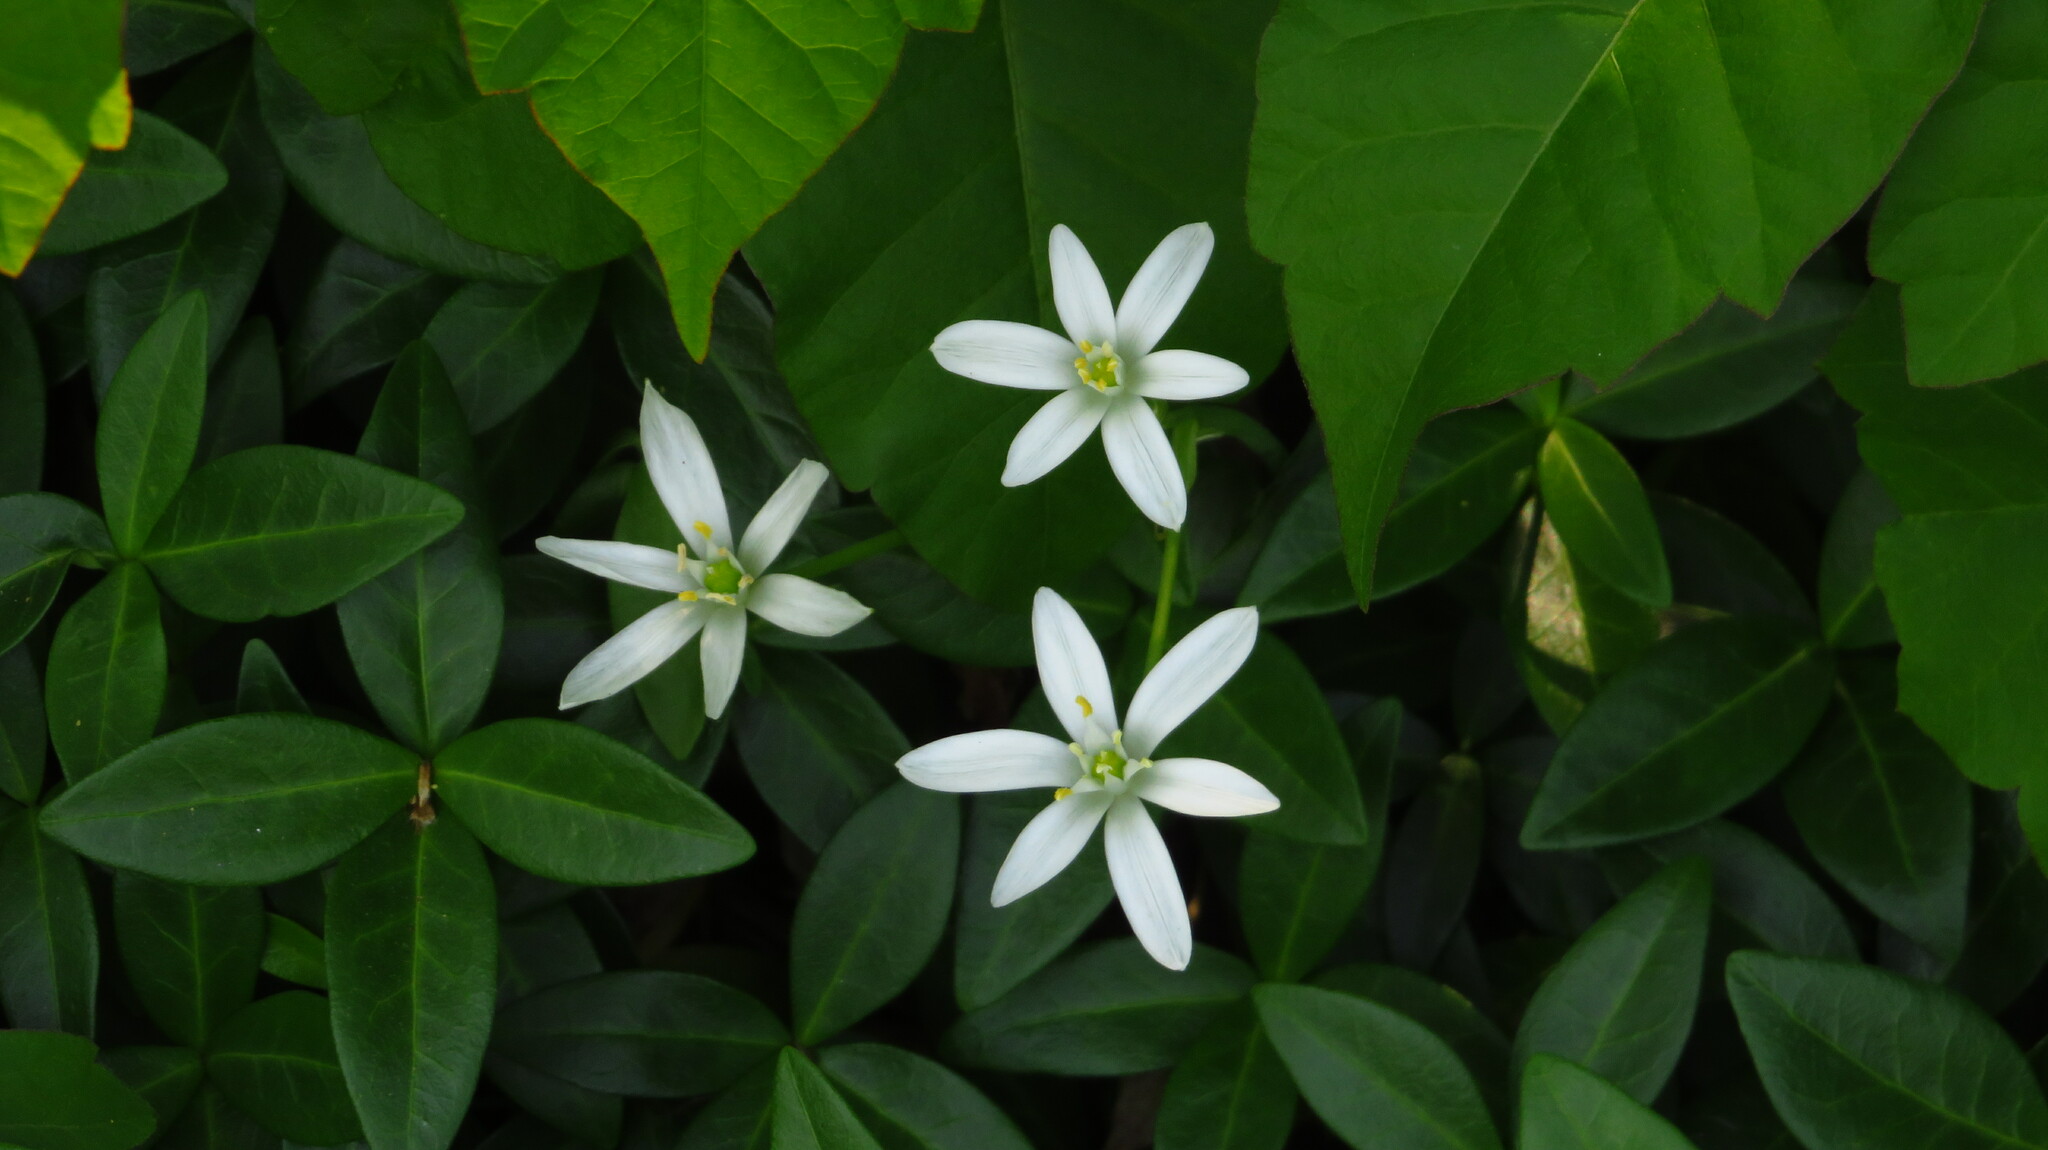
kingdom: Plantae
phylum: Tracheophyta
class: Liliopsida
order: Asparagales
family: Asparagaceae
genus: Ornithogalum
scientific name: Ornithogalum umbellatum
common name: Garden star-of-bethlehem
